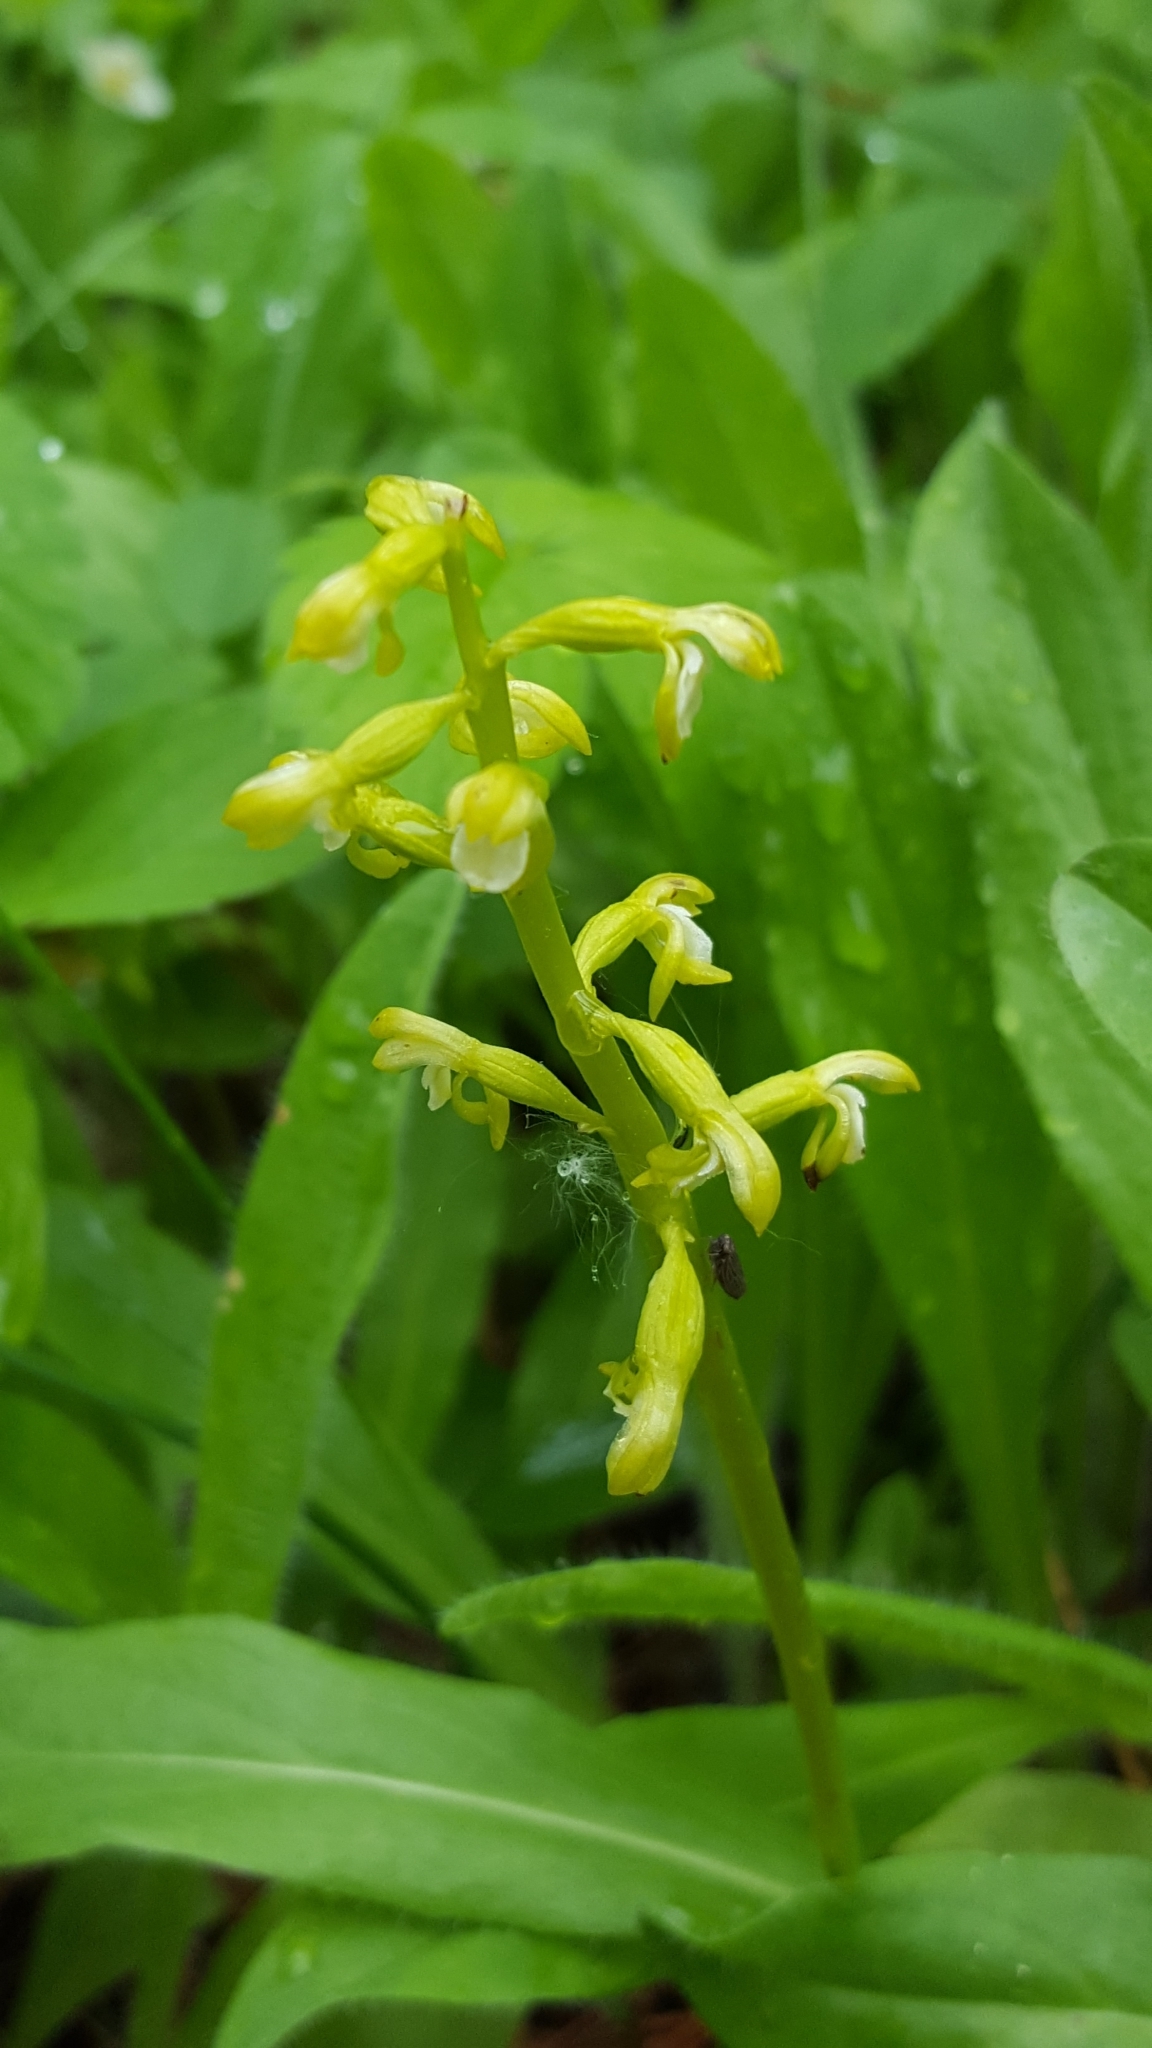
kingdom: Plantae
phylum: Tracheophyta
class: Liliopsida
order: Asparagales
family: Orchidaceae
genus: Corallorhiza
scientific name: Corallorhiza trifida
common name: Yellow coralroot
